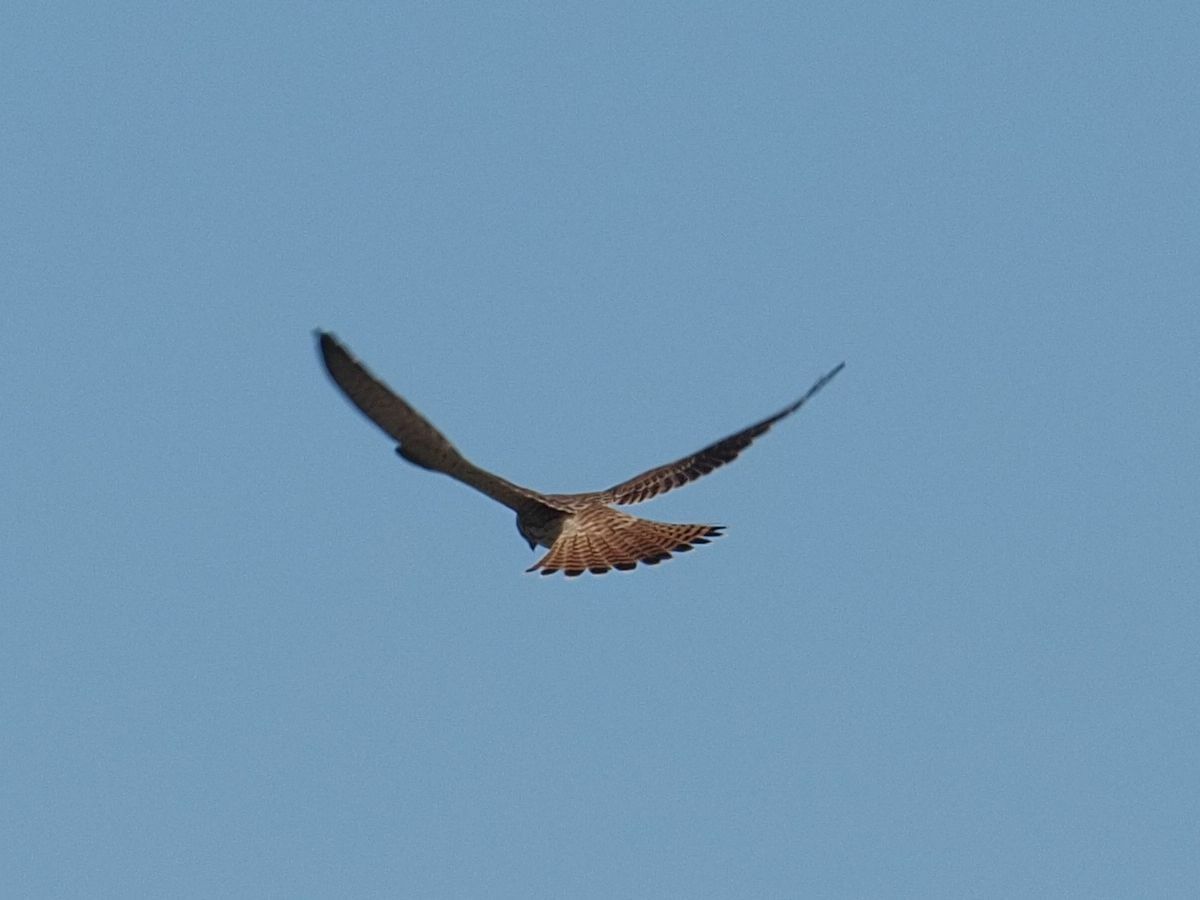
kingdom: Animalia
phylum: Chordata
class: Aves
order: Falconiformes
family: Falconidae
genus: Falco
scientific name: Falco tinnunculus
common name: Common kestrel
